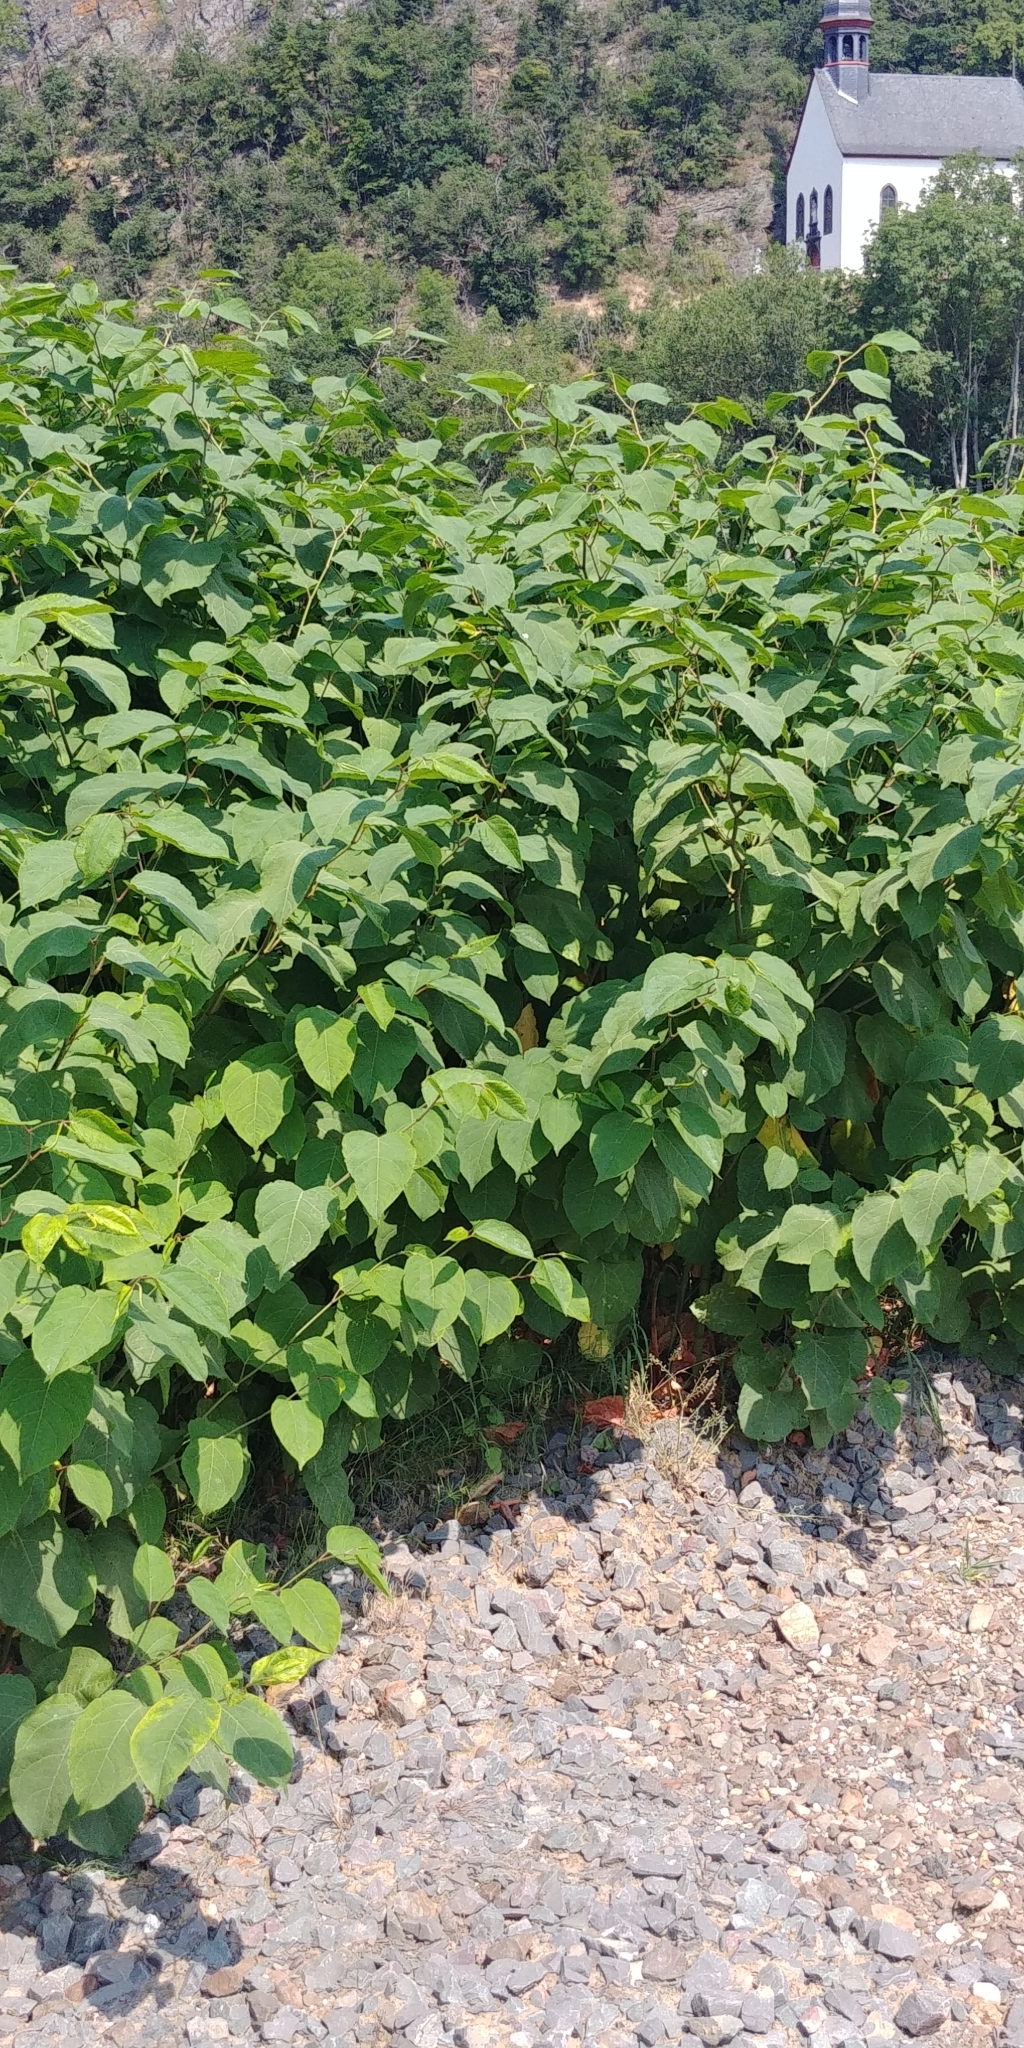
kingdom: Plantae
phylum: Tracheophyta
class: Magnoliopsida
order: Caryophyllales
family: Polygonaceae
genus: Reynoutria
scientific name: Reynoutria bohemica
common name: Bohemian knotweed
